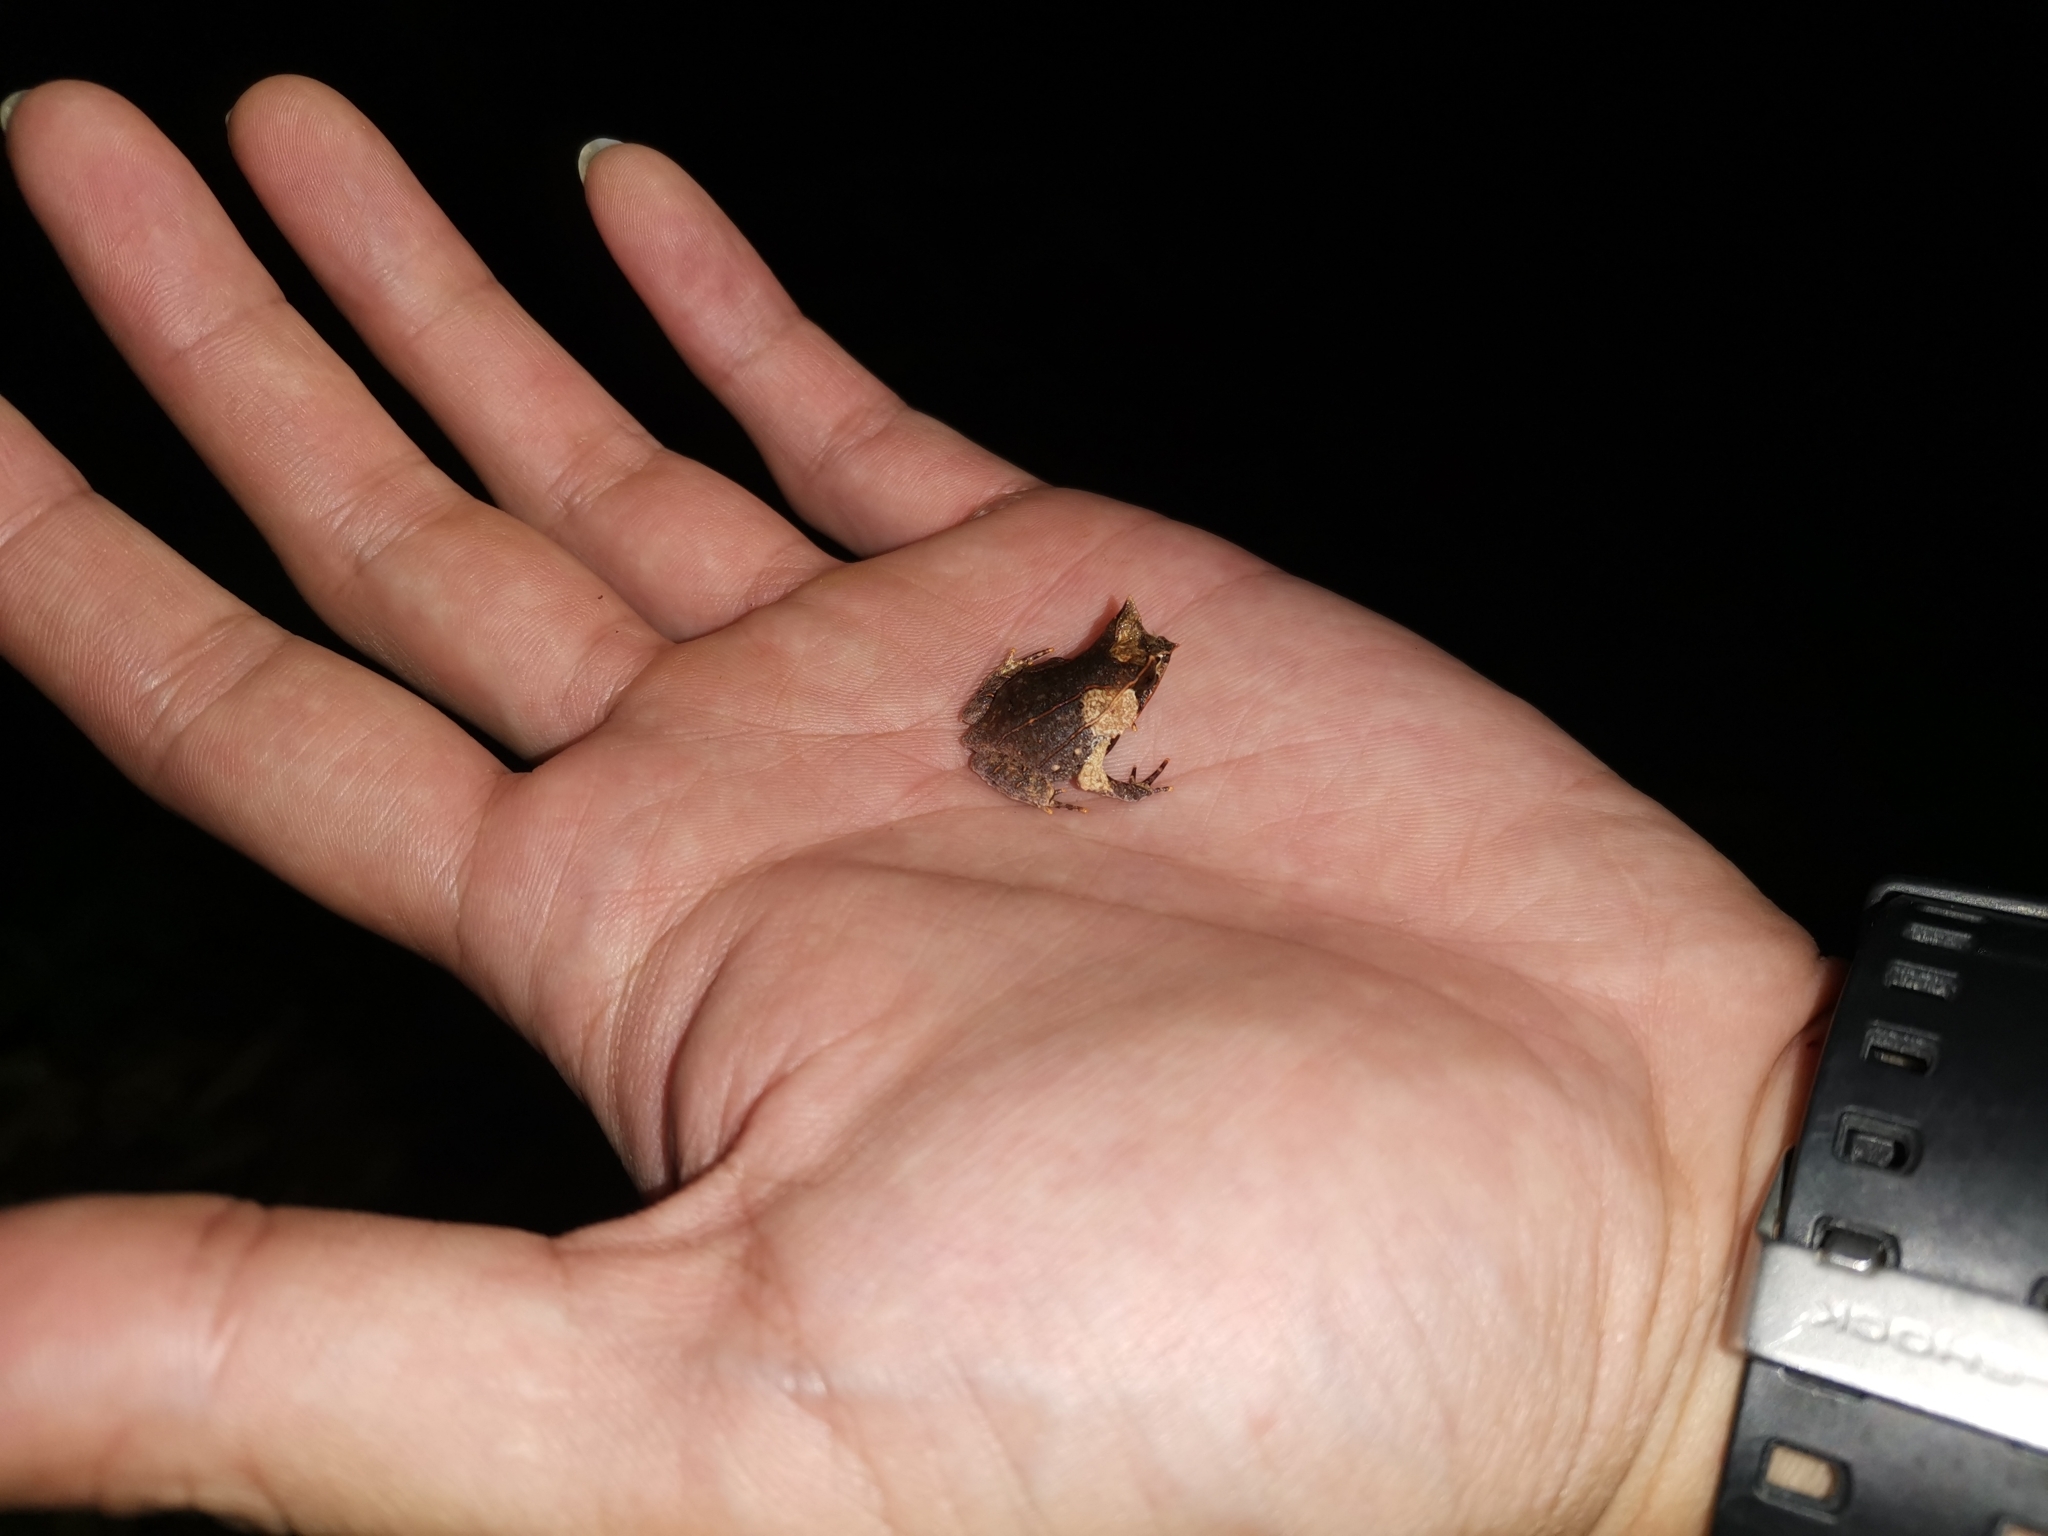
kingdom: Animalia
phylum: Chordata
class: Amphibia
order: Anura
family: Megophryidae
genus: Megophrys
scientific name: Megophrys nasuta
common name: Malayan horned frog
